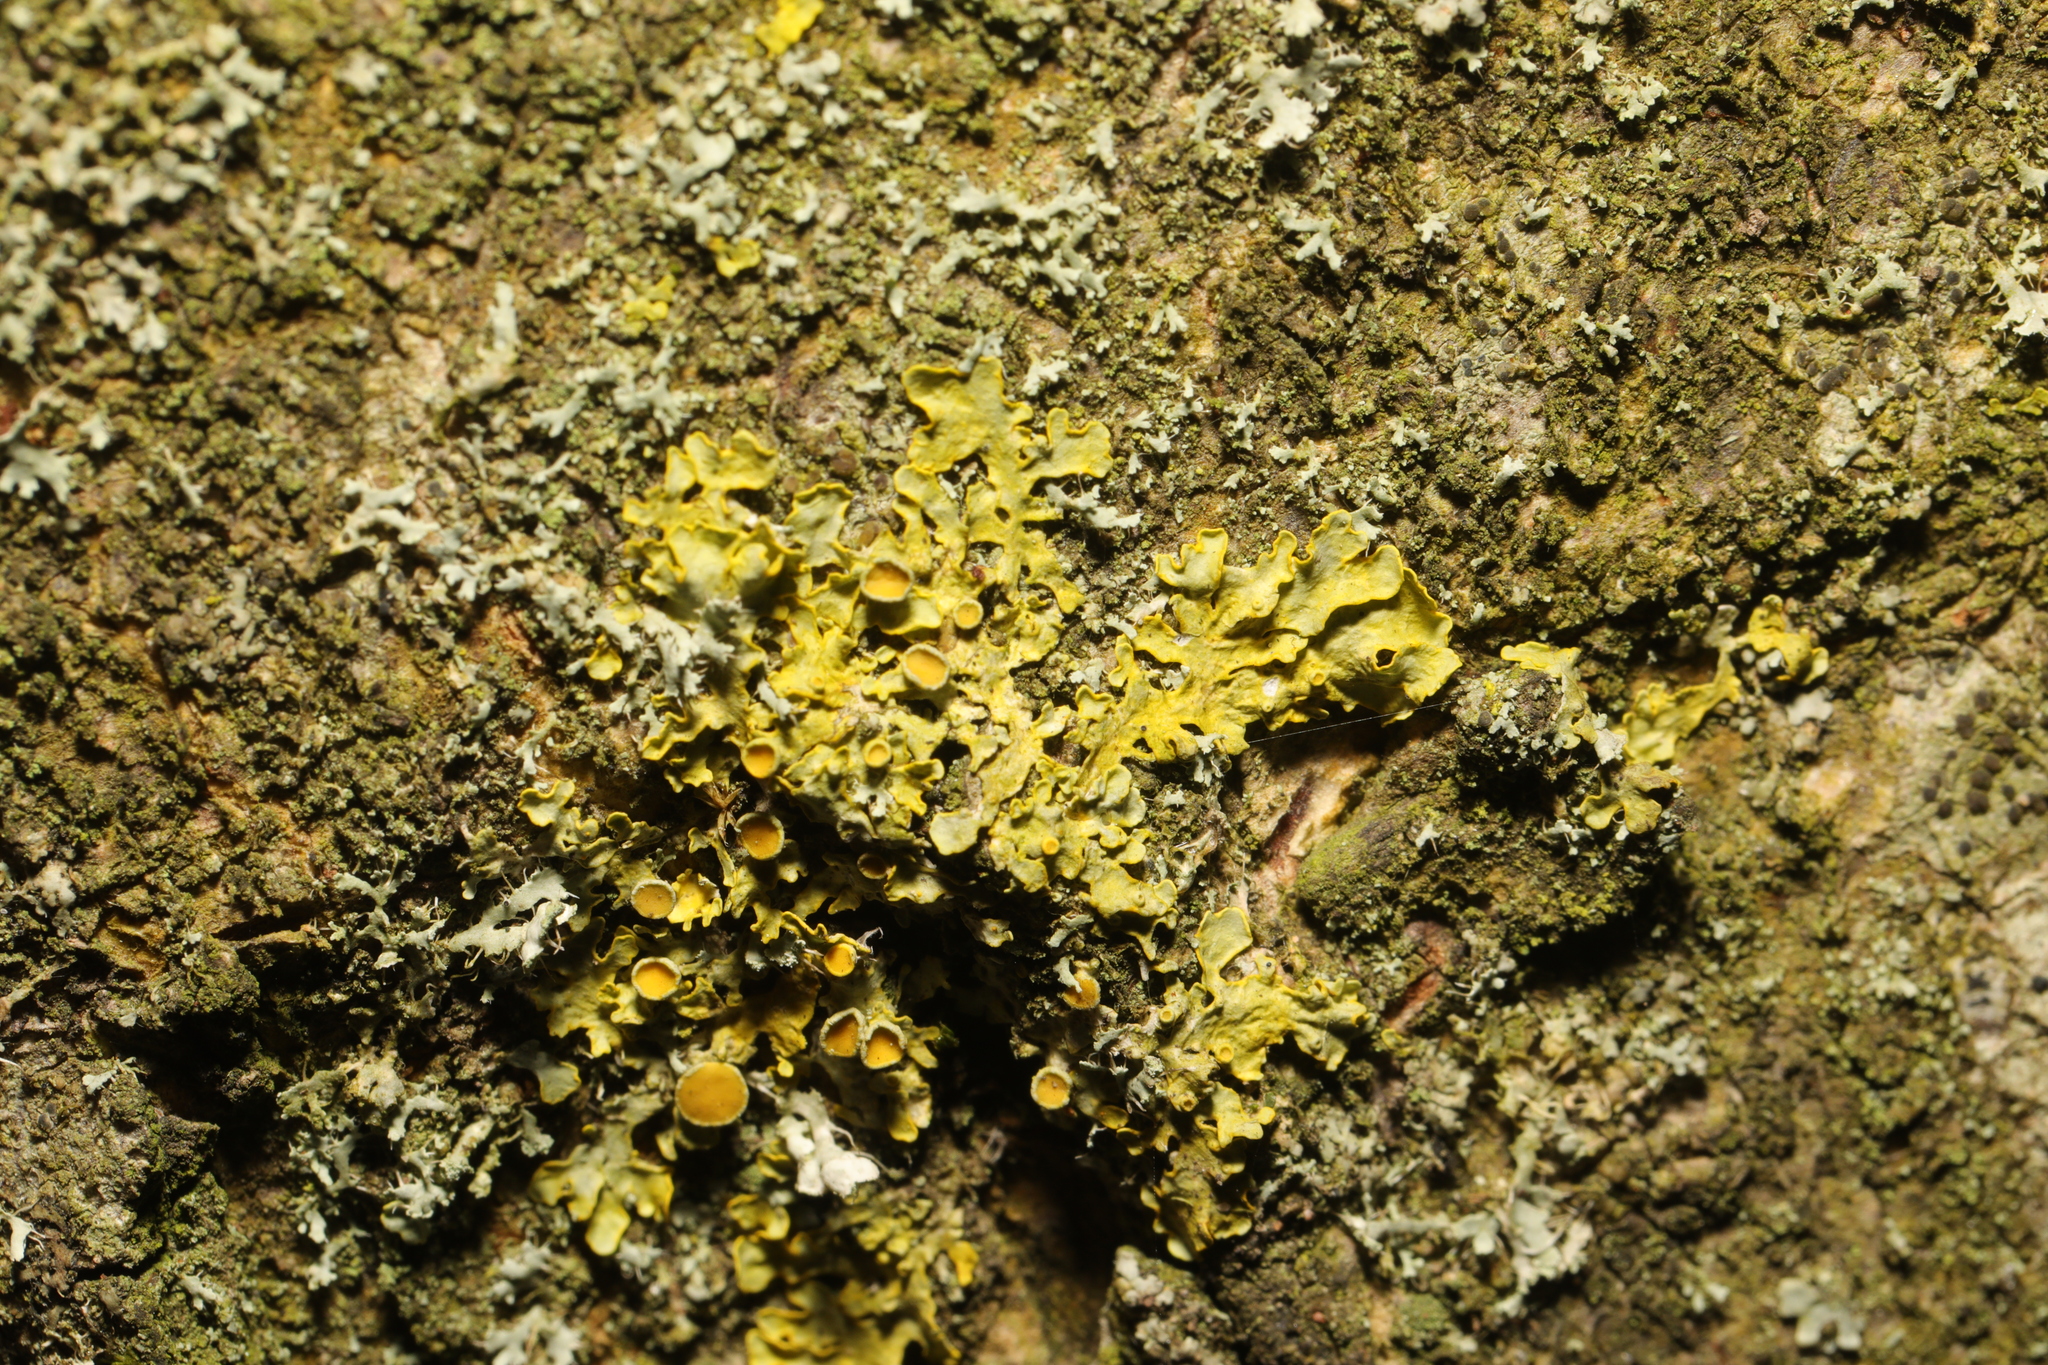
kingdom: Fungi
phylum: Ascomycota
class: Lecanoromycetes
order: Teloschistales
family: Teloschistaceae
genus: Xanthoria
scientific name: Xanthoria parietina
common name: Common orange lichen
